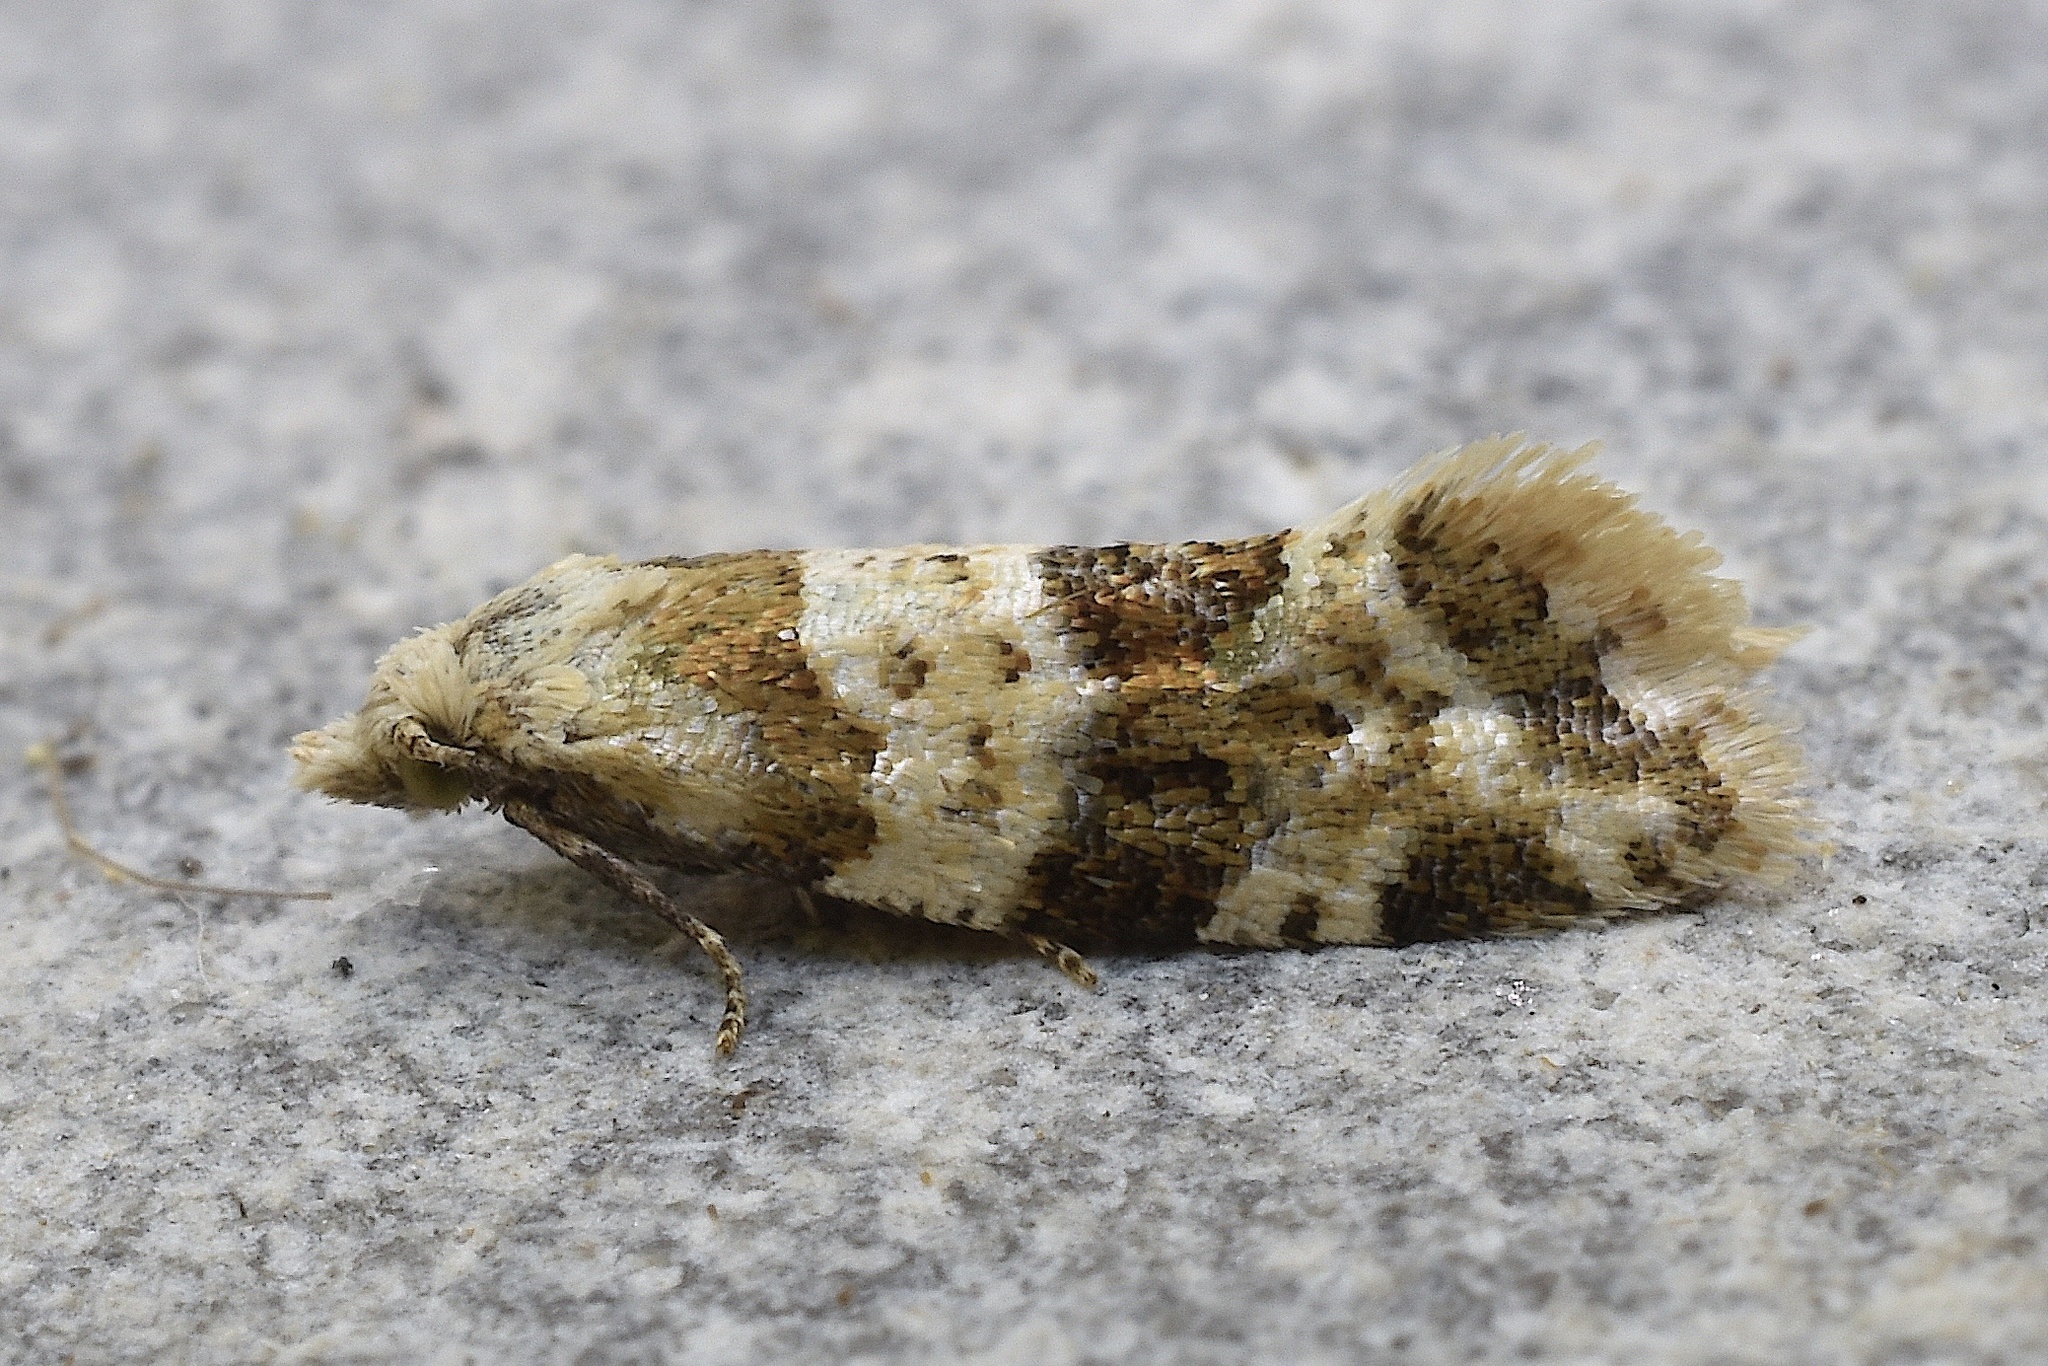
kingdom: Animalia
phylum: Arthropoda
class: Insecta
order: Lepidoptera
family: Tortricidae
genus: Aethes
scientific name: Aethes argentilimitana
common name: Silver-bordered aethes
